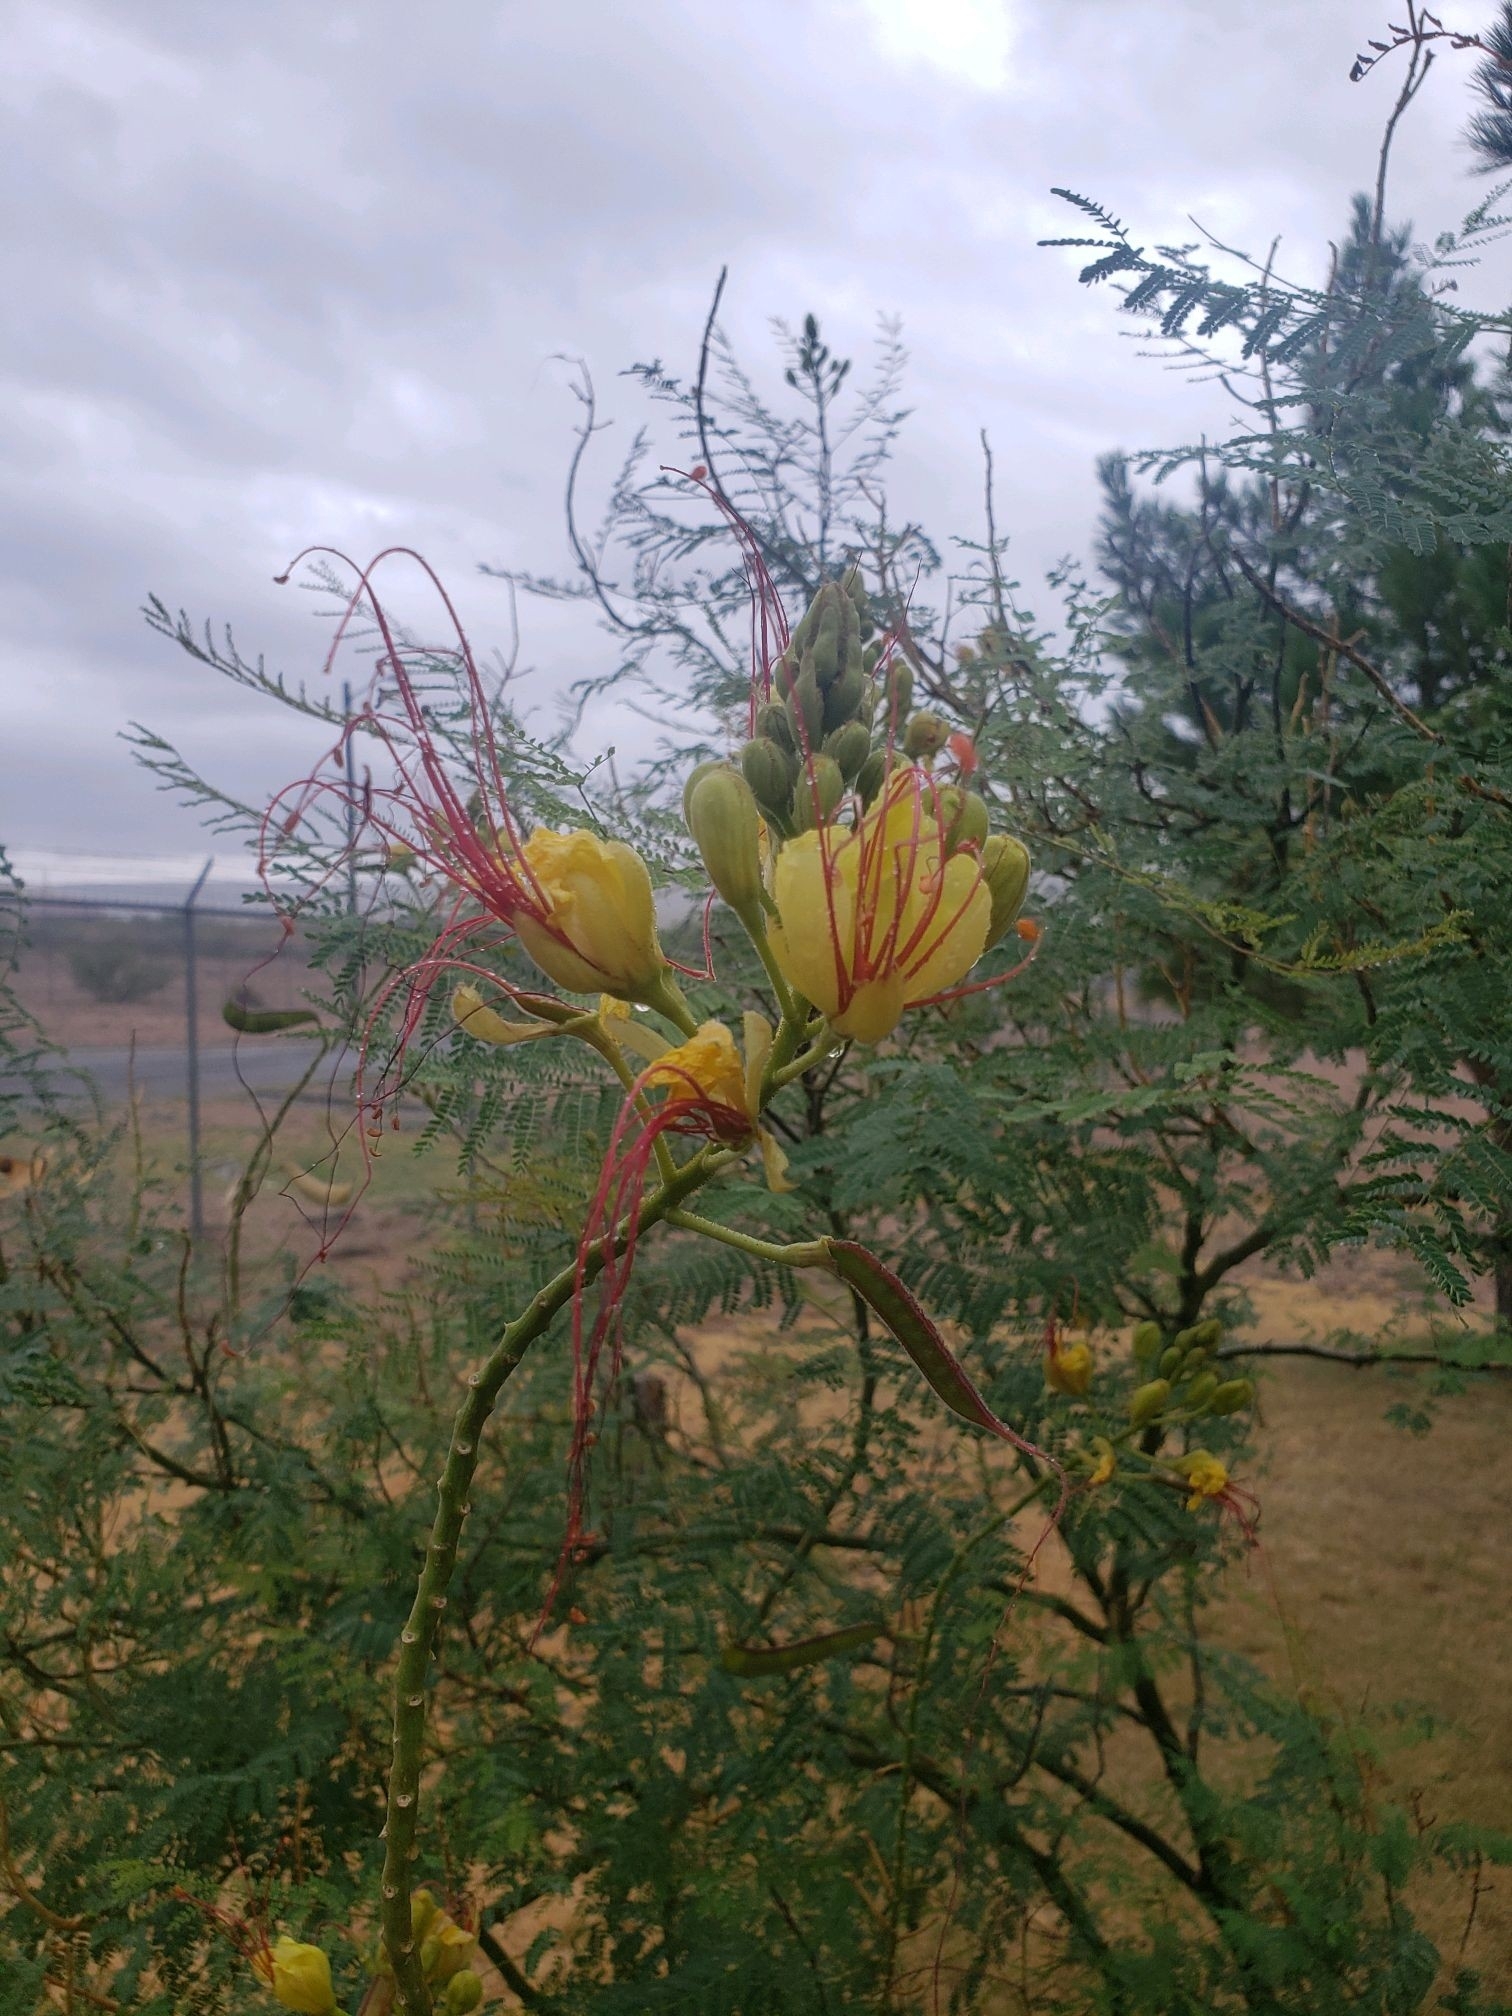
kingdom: Plantae
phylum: Tracheophyta
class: Magnoliopsida
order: Fabales
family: Fabaceae
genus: Erythrostemon
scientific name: Erythrostemon gilliesii
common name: Bird-of-paradise shrub
